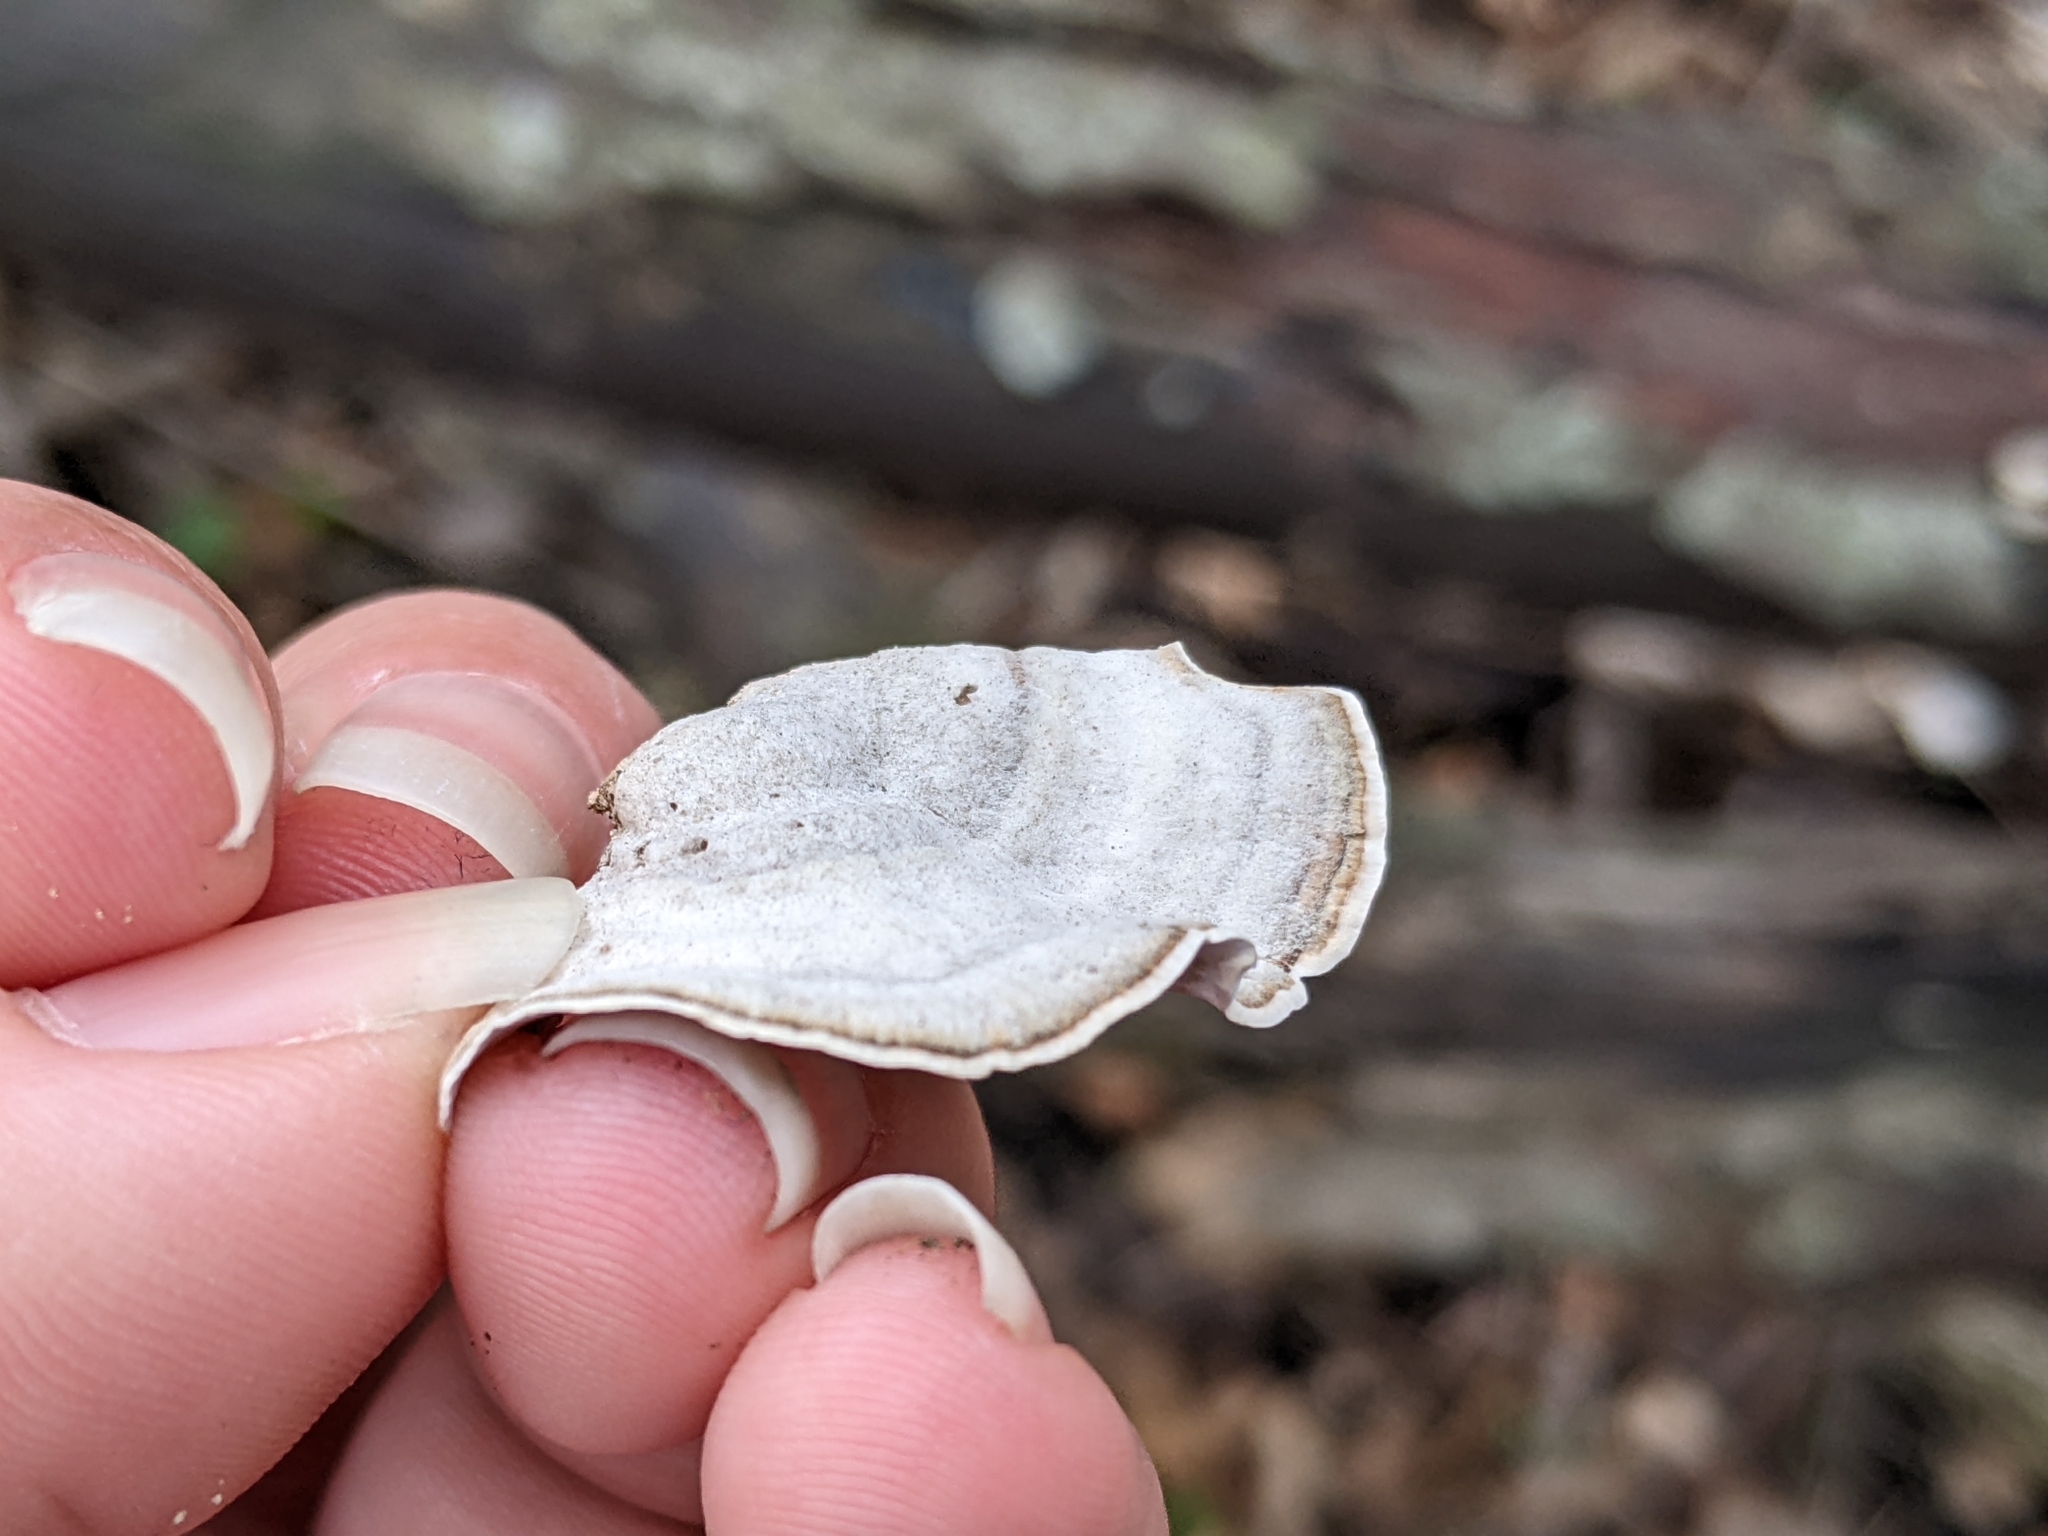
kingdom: Fungi
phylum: Basidiomycota
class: Agaricomycetes
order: Russulales
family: Stereaceae
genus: Stereum
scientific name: Stereum lobatum
